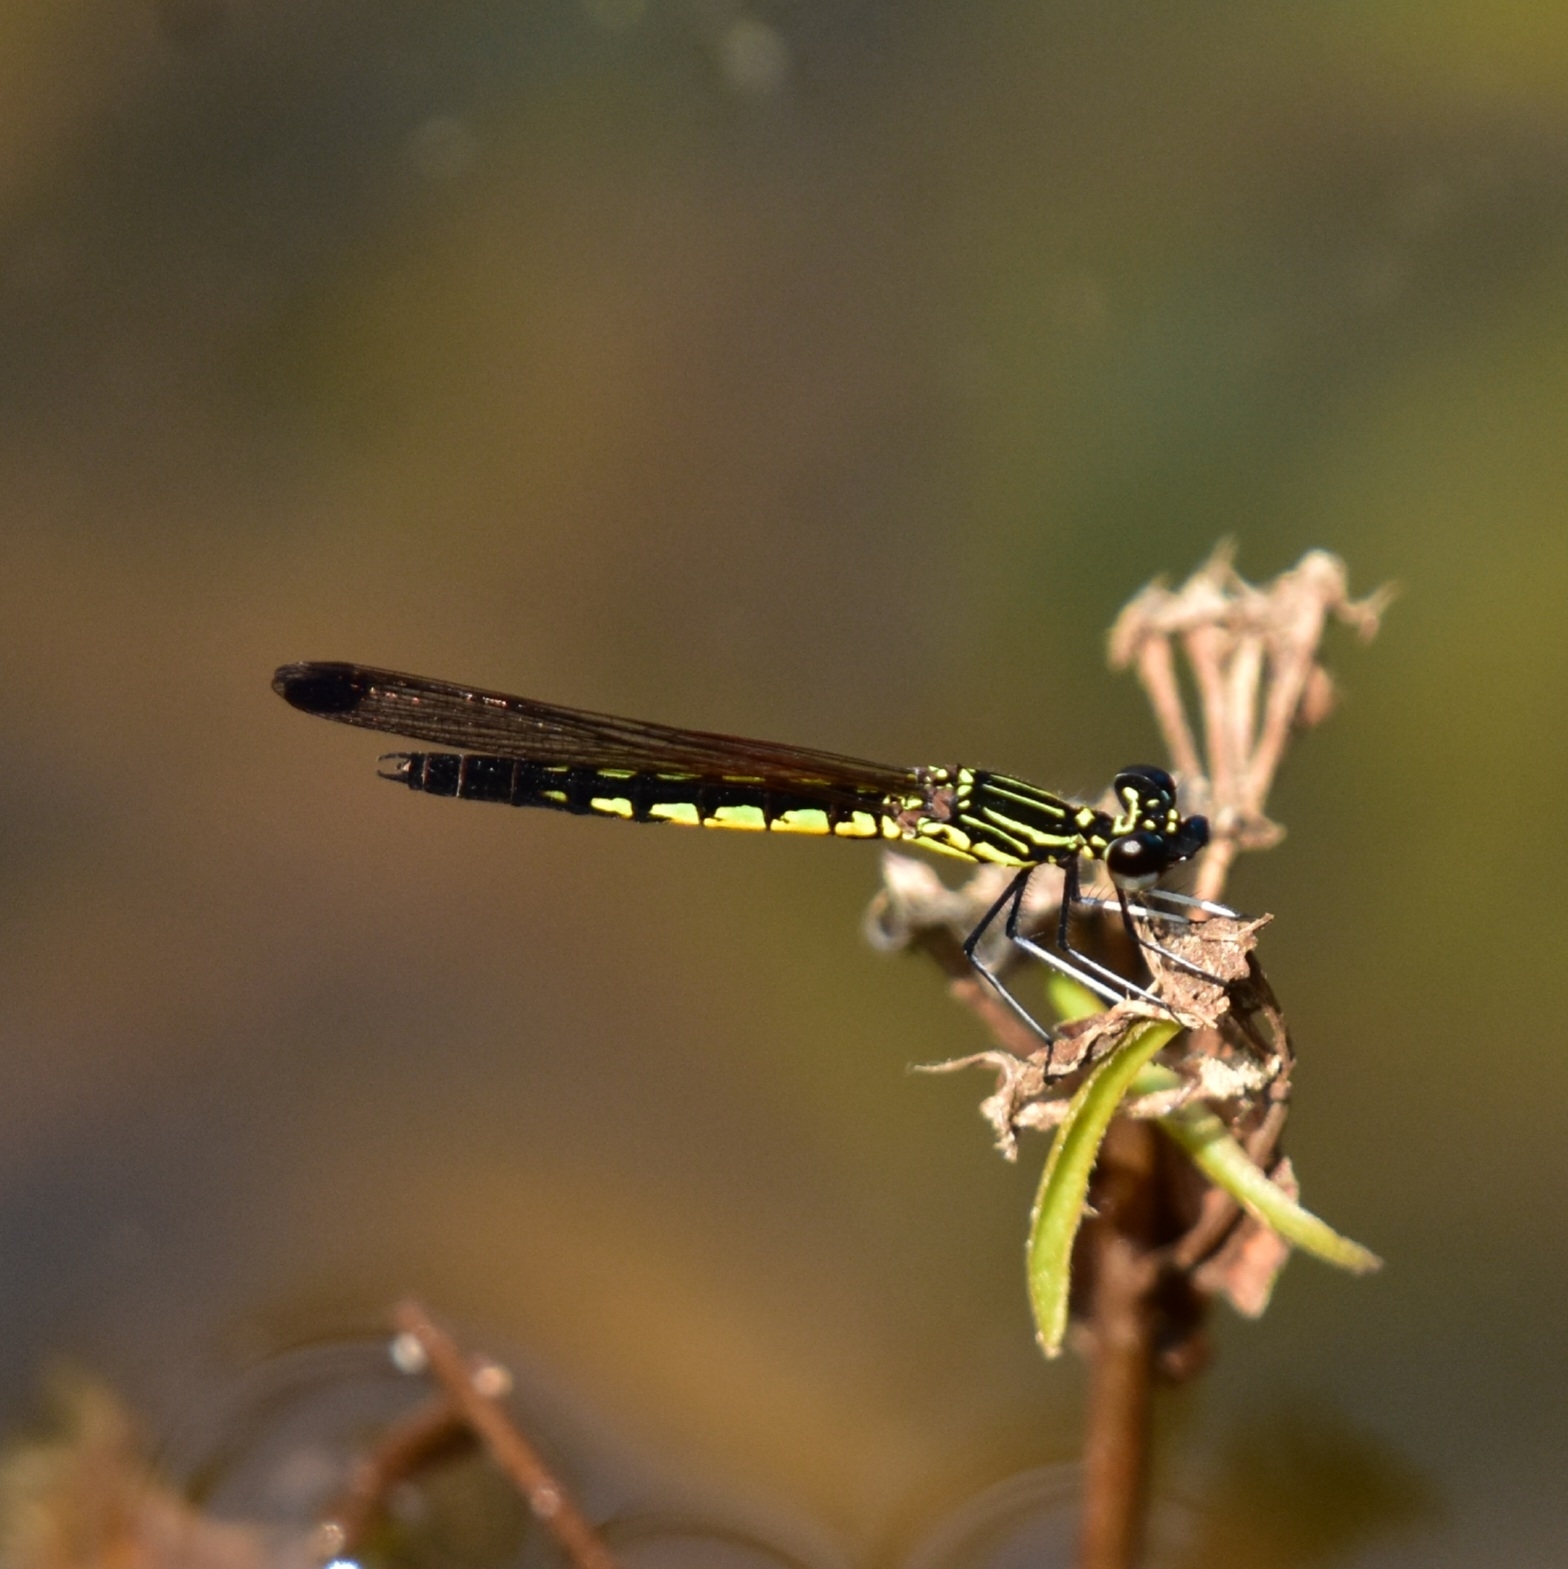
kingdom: Animalia
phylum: Arthropoda
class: Insecta
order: Odonata
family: Chlorocyphidae
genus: Libellago
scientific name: Libellago indica
